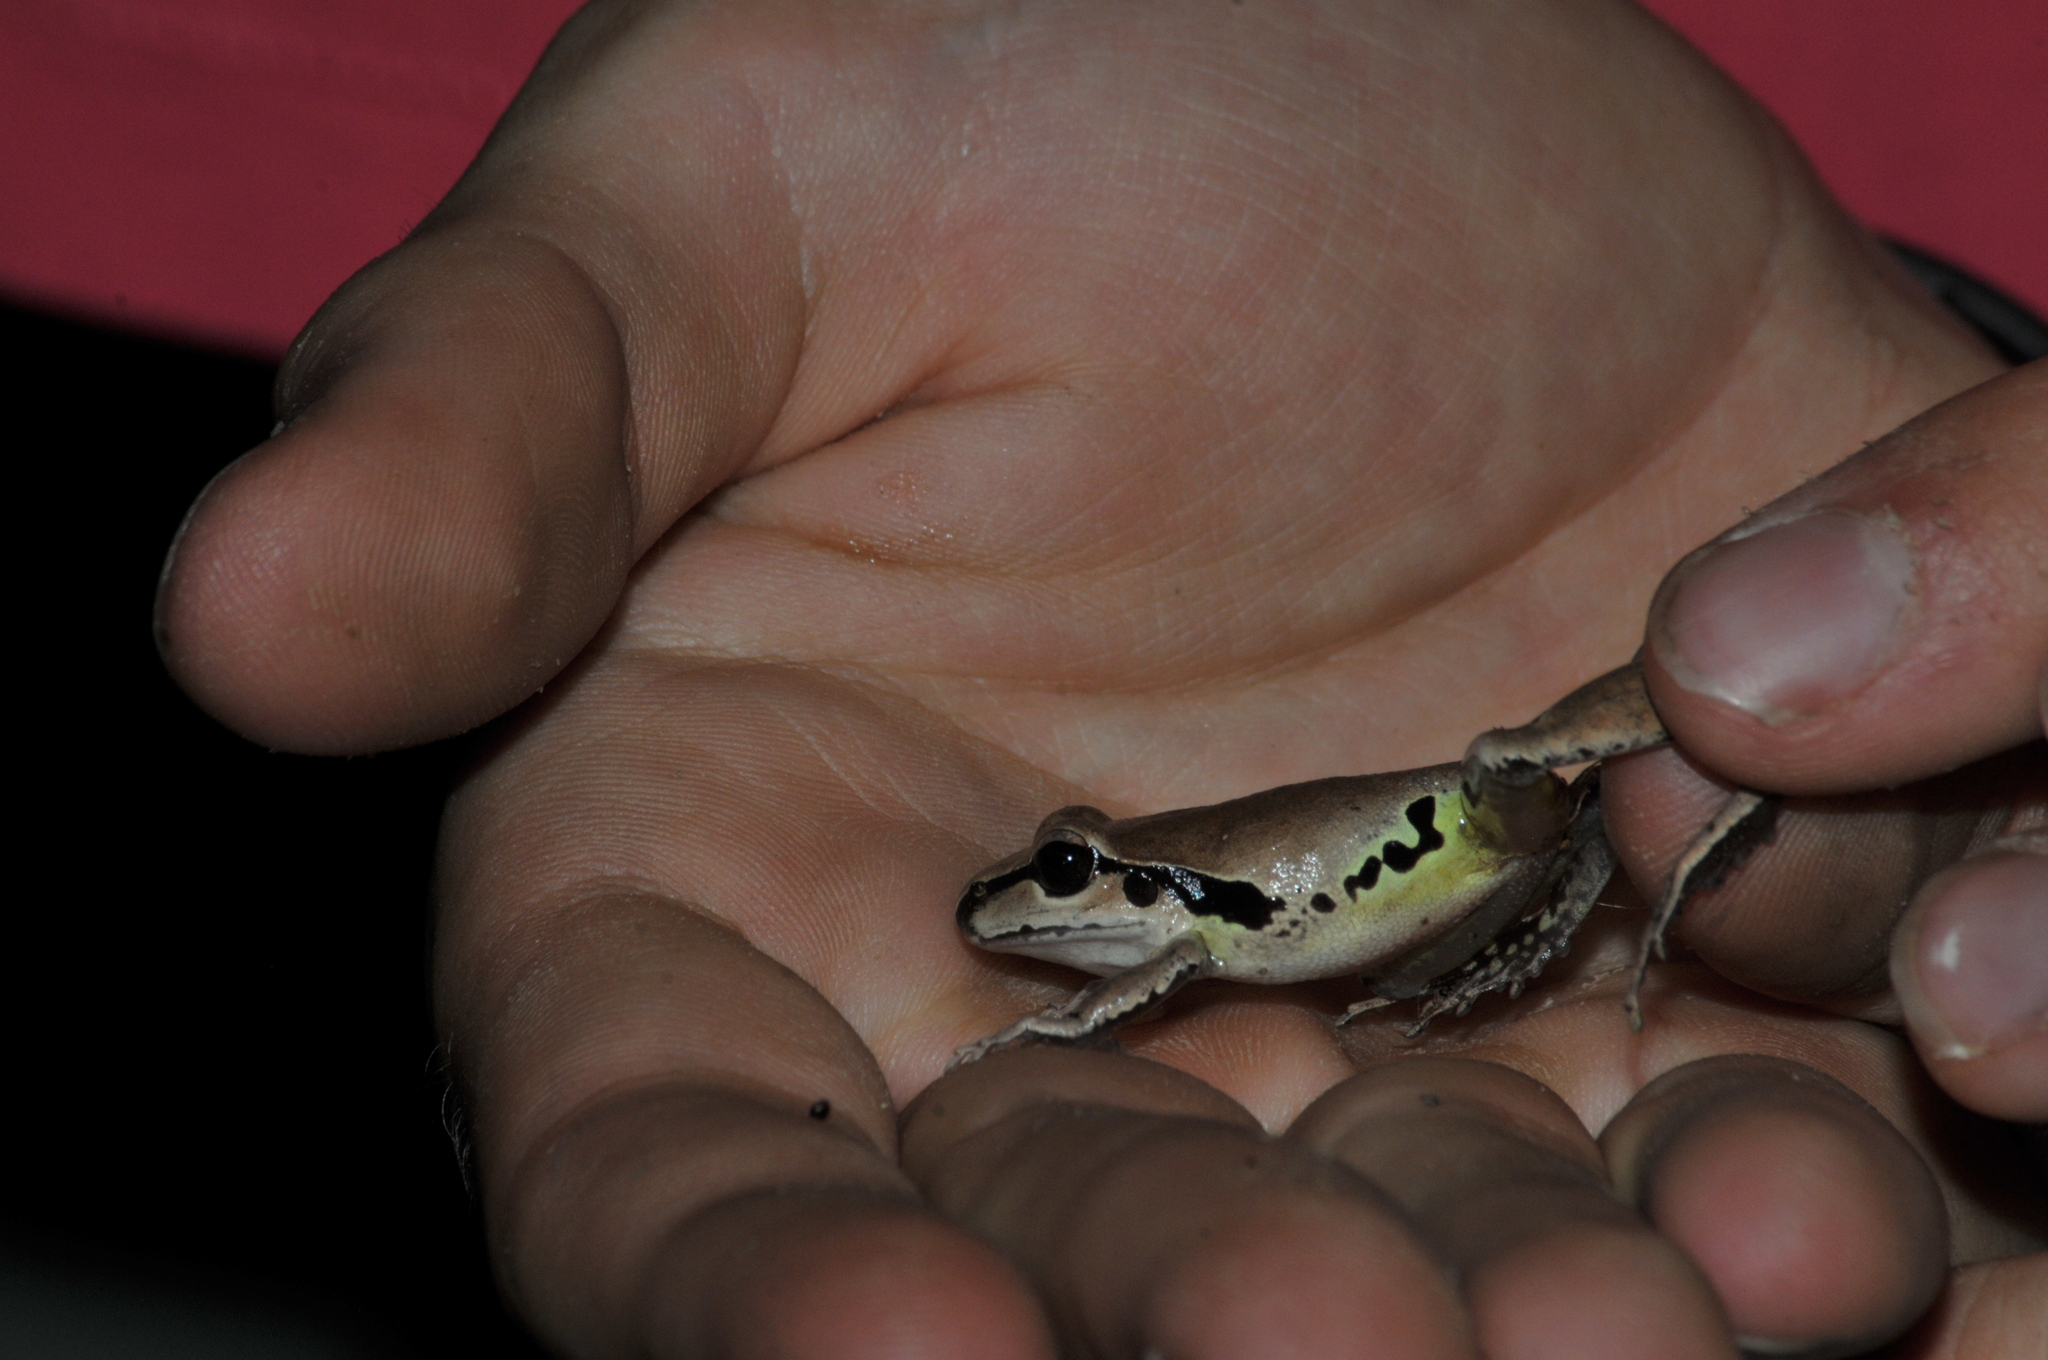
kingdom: Animalia
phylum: Chordata
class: Amphibia
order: Anura
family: Pelodryadidae
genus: Ranoidea
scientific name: Ranoidea wilcoxii
